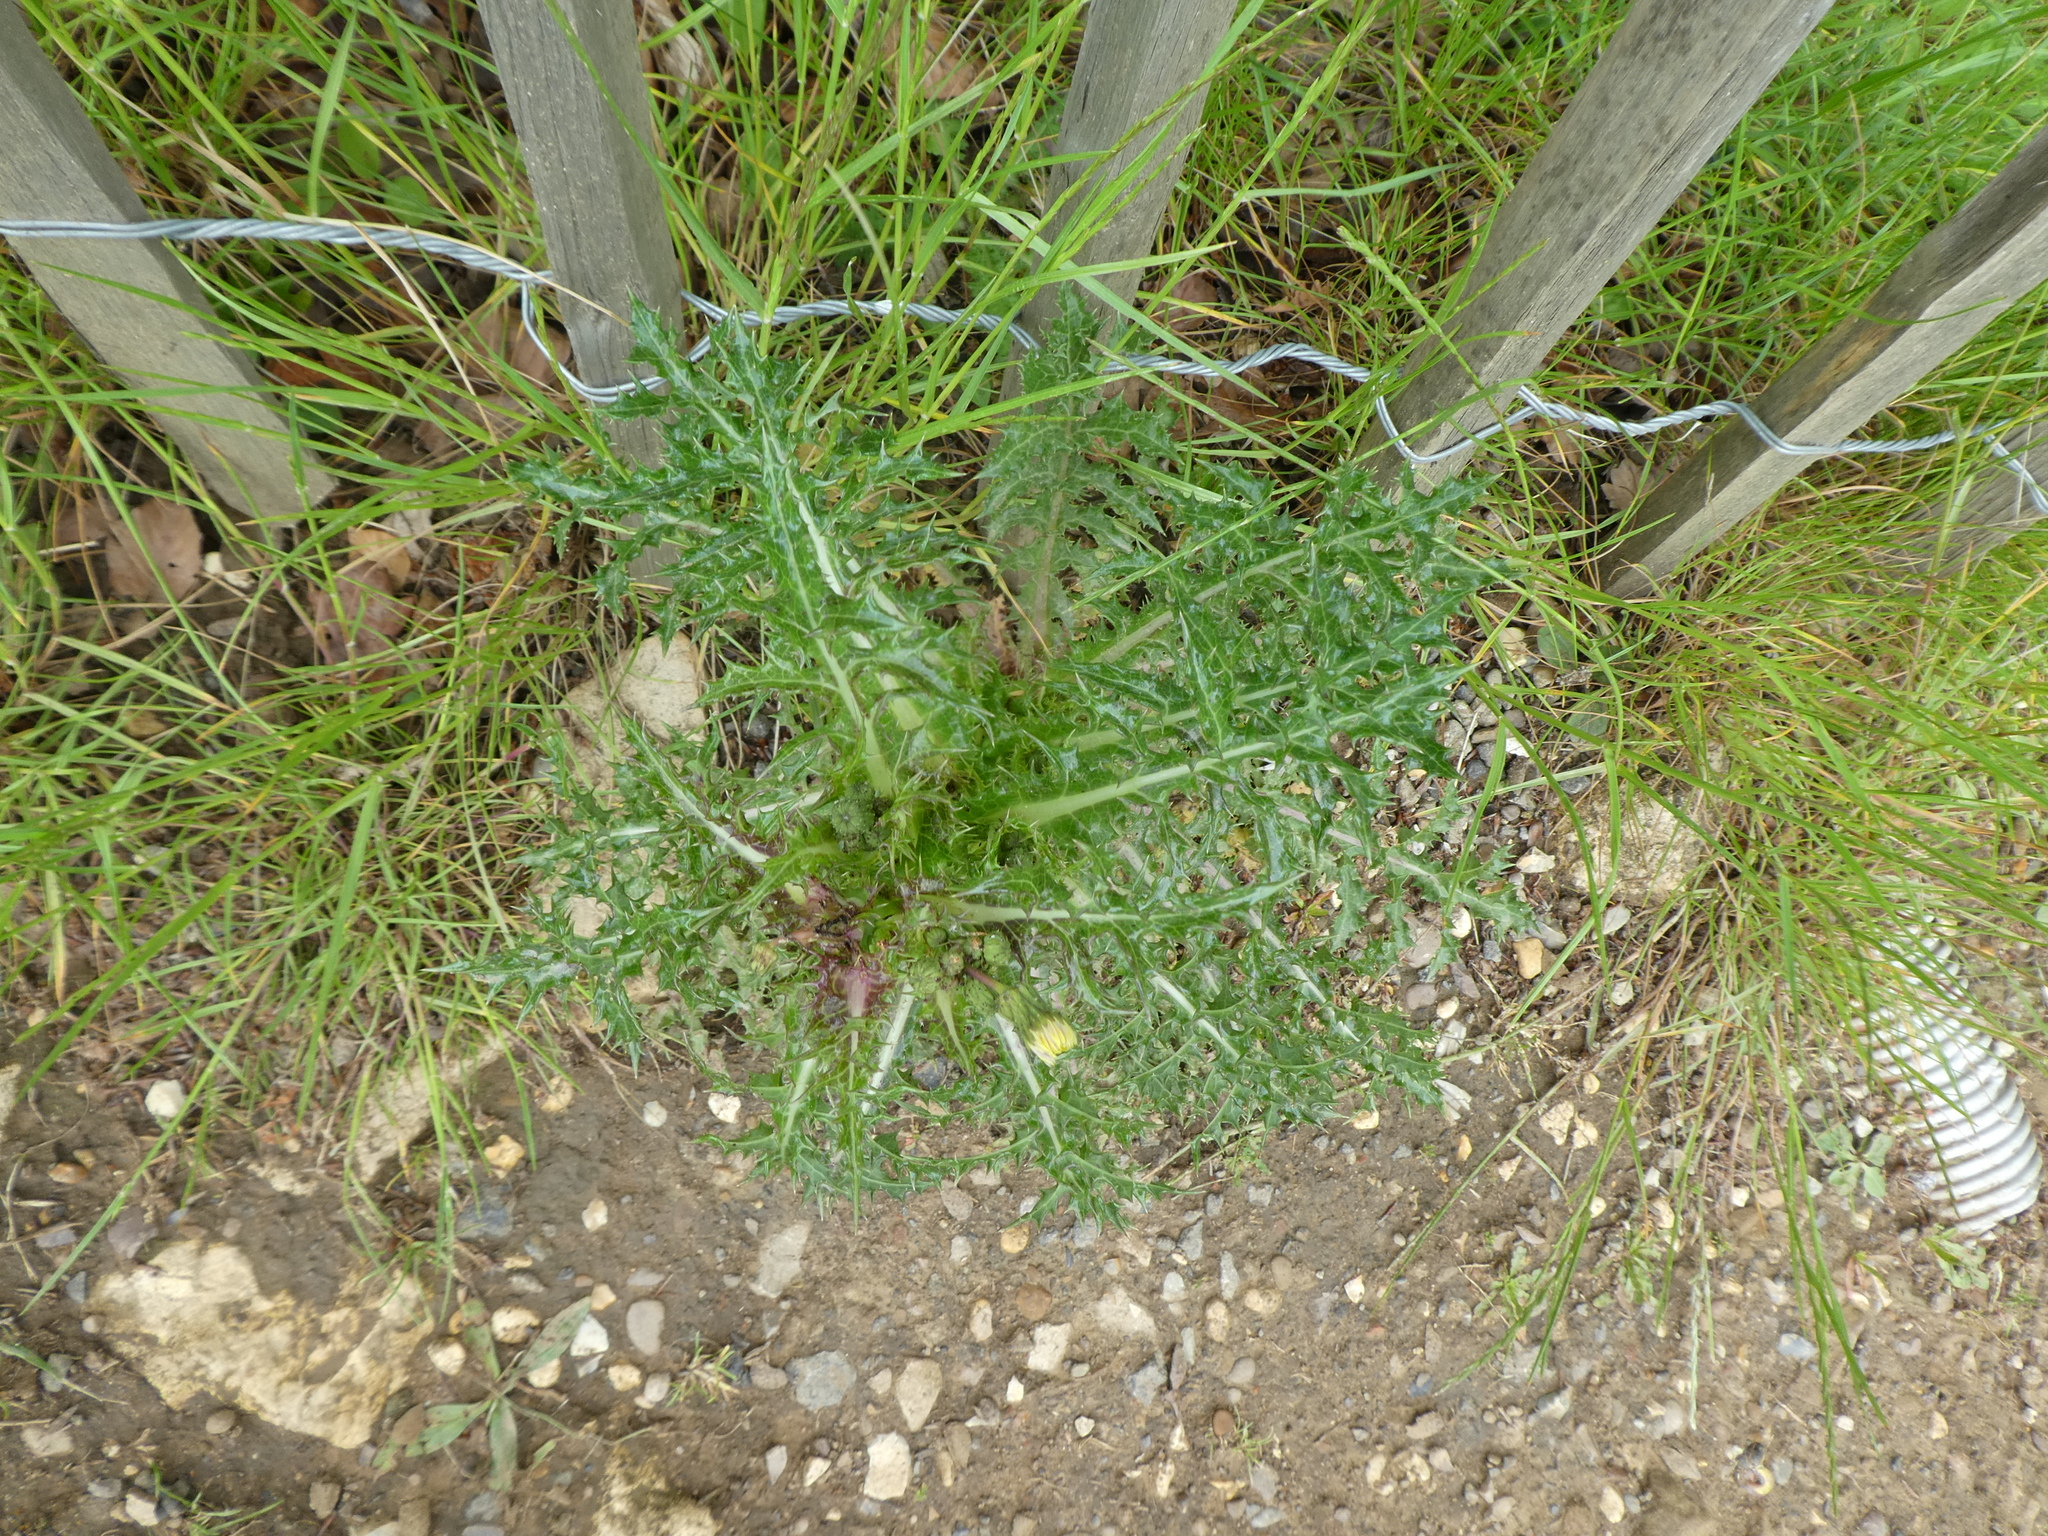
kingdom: Plantae
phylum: Tracheophyta
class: Magnoliopsida
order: Asterales
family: Asteraceae
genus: Sonchus
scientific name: Sonchus asper
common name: Prickly sow-thistle
